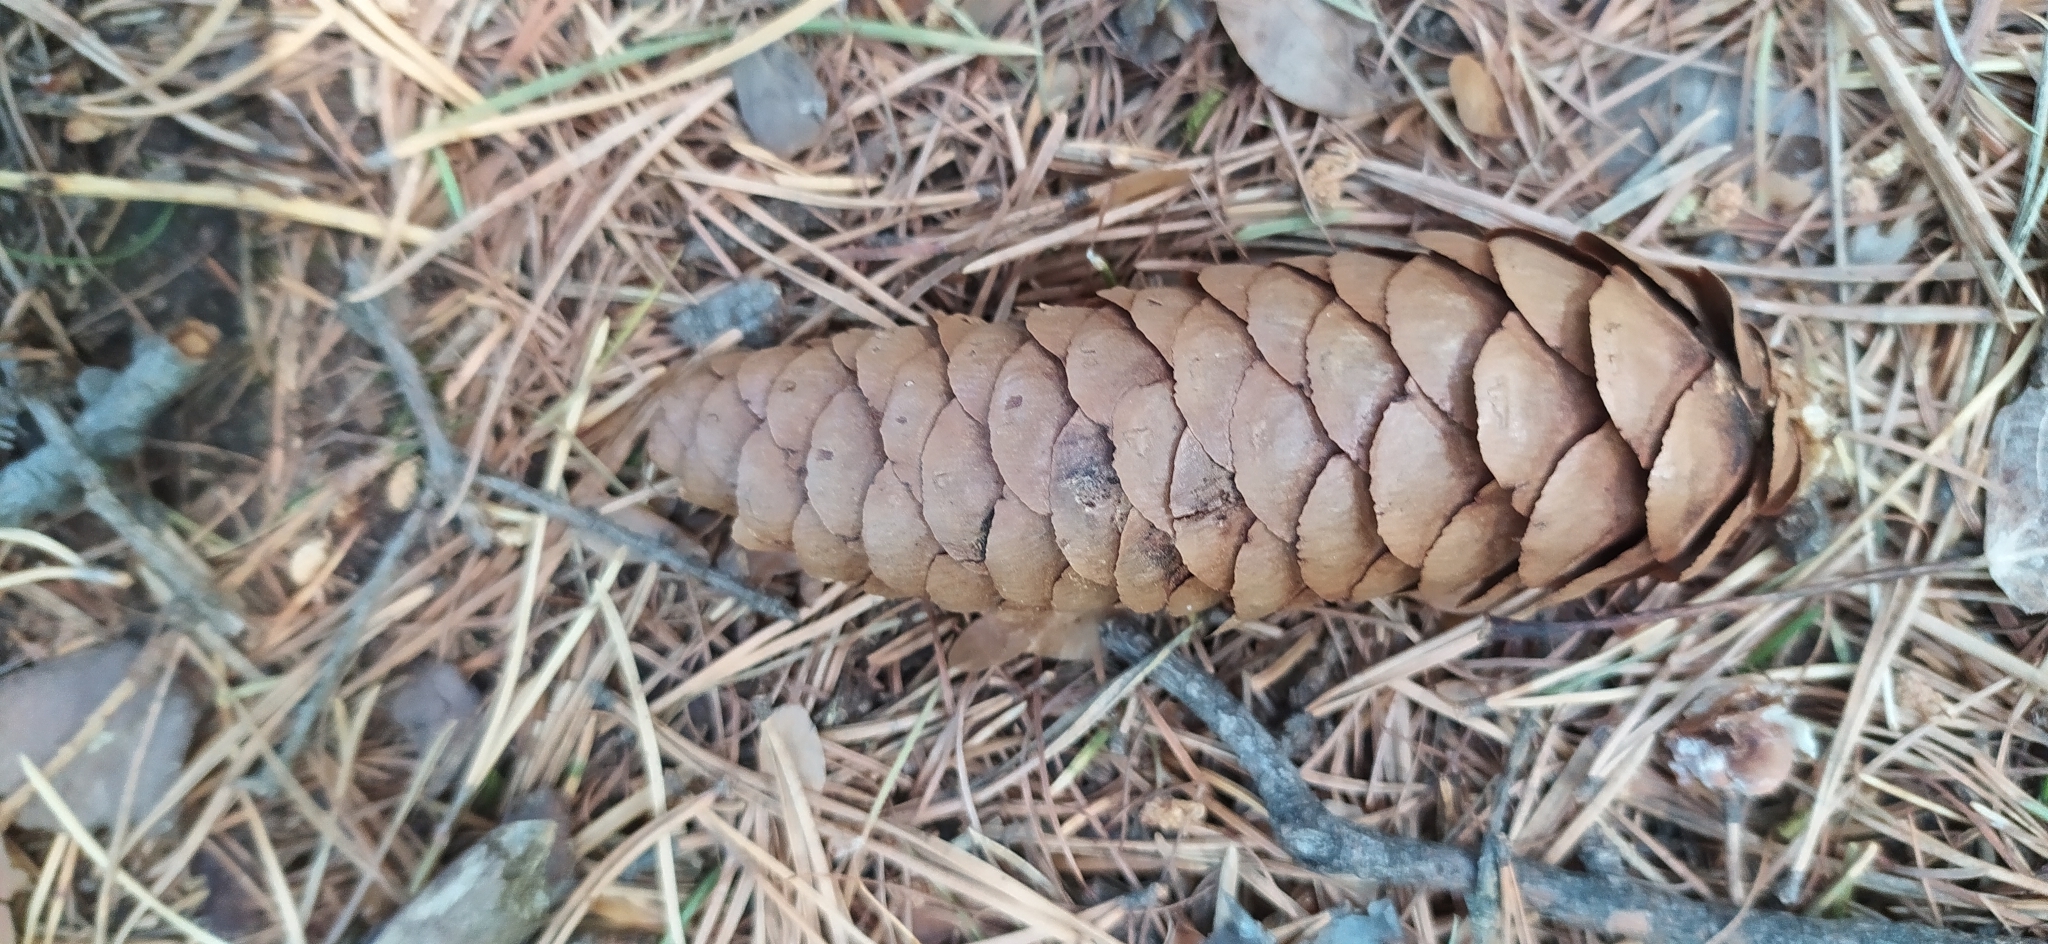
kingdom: Plantae
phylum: Tracheophyta
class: Pinopsida
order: Pinales
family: Pinaceae
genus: Picea
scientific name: Picea obovata
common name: Siberian spruce
